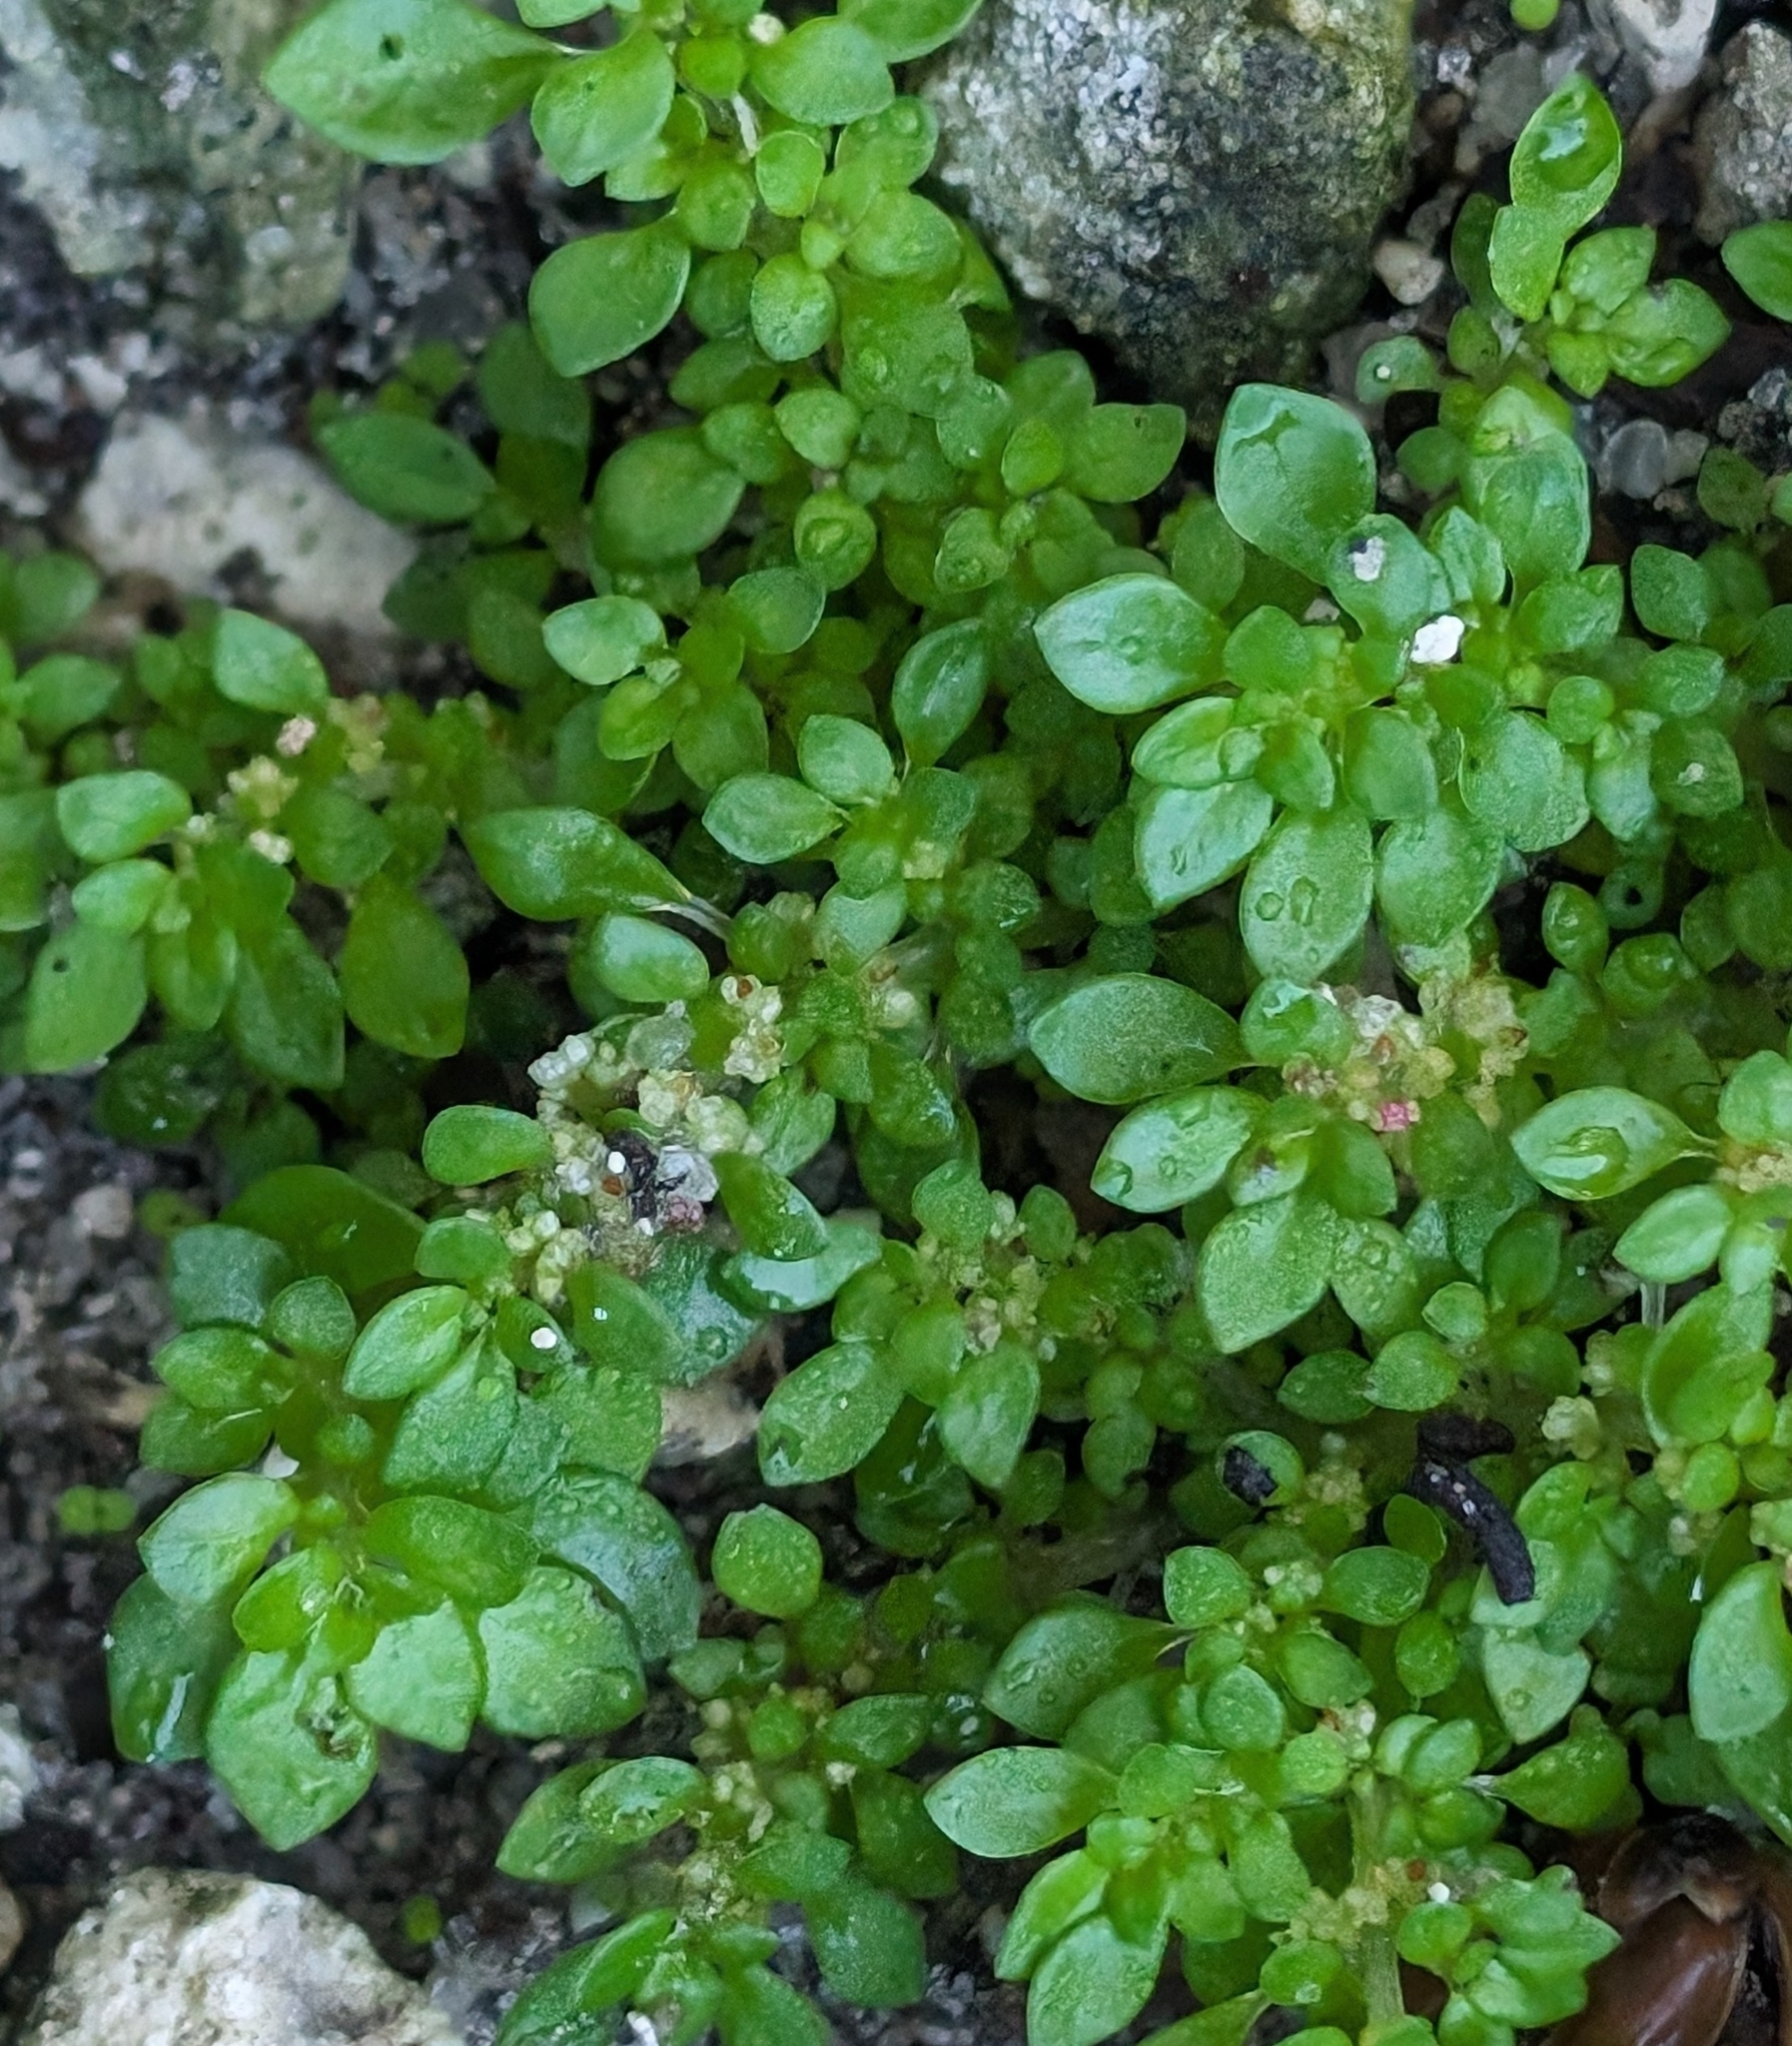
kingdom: Plantae
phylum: Tracheophyta
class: Magnoliopsida
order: Rosales
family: Urticaceae
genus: Pilea
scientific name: Pilea microphylla
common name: Artillery-plant
